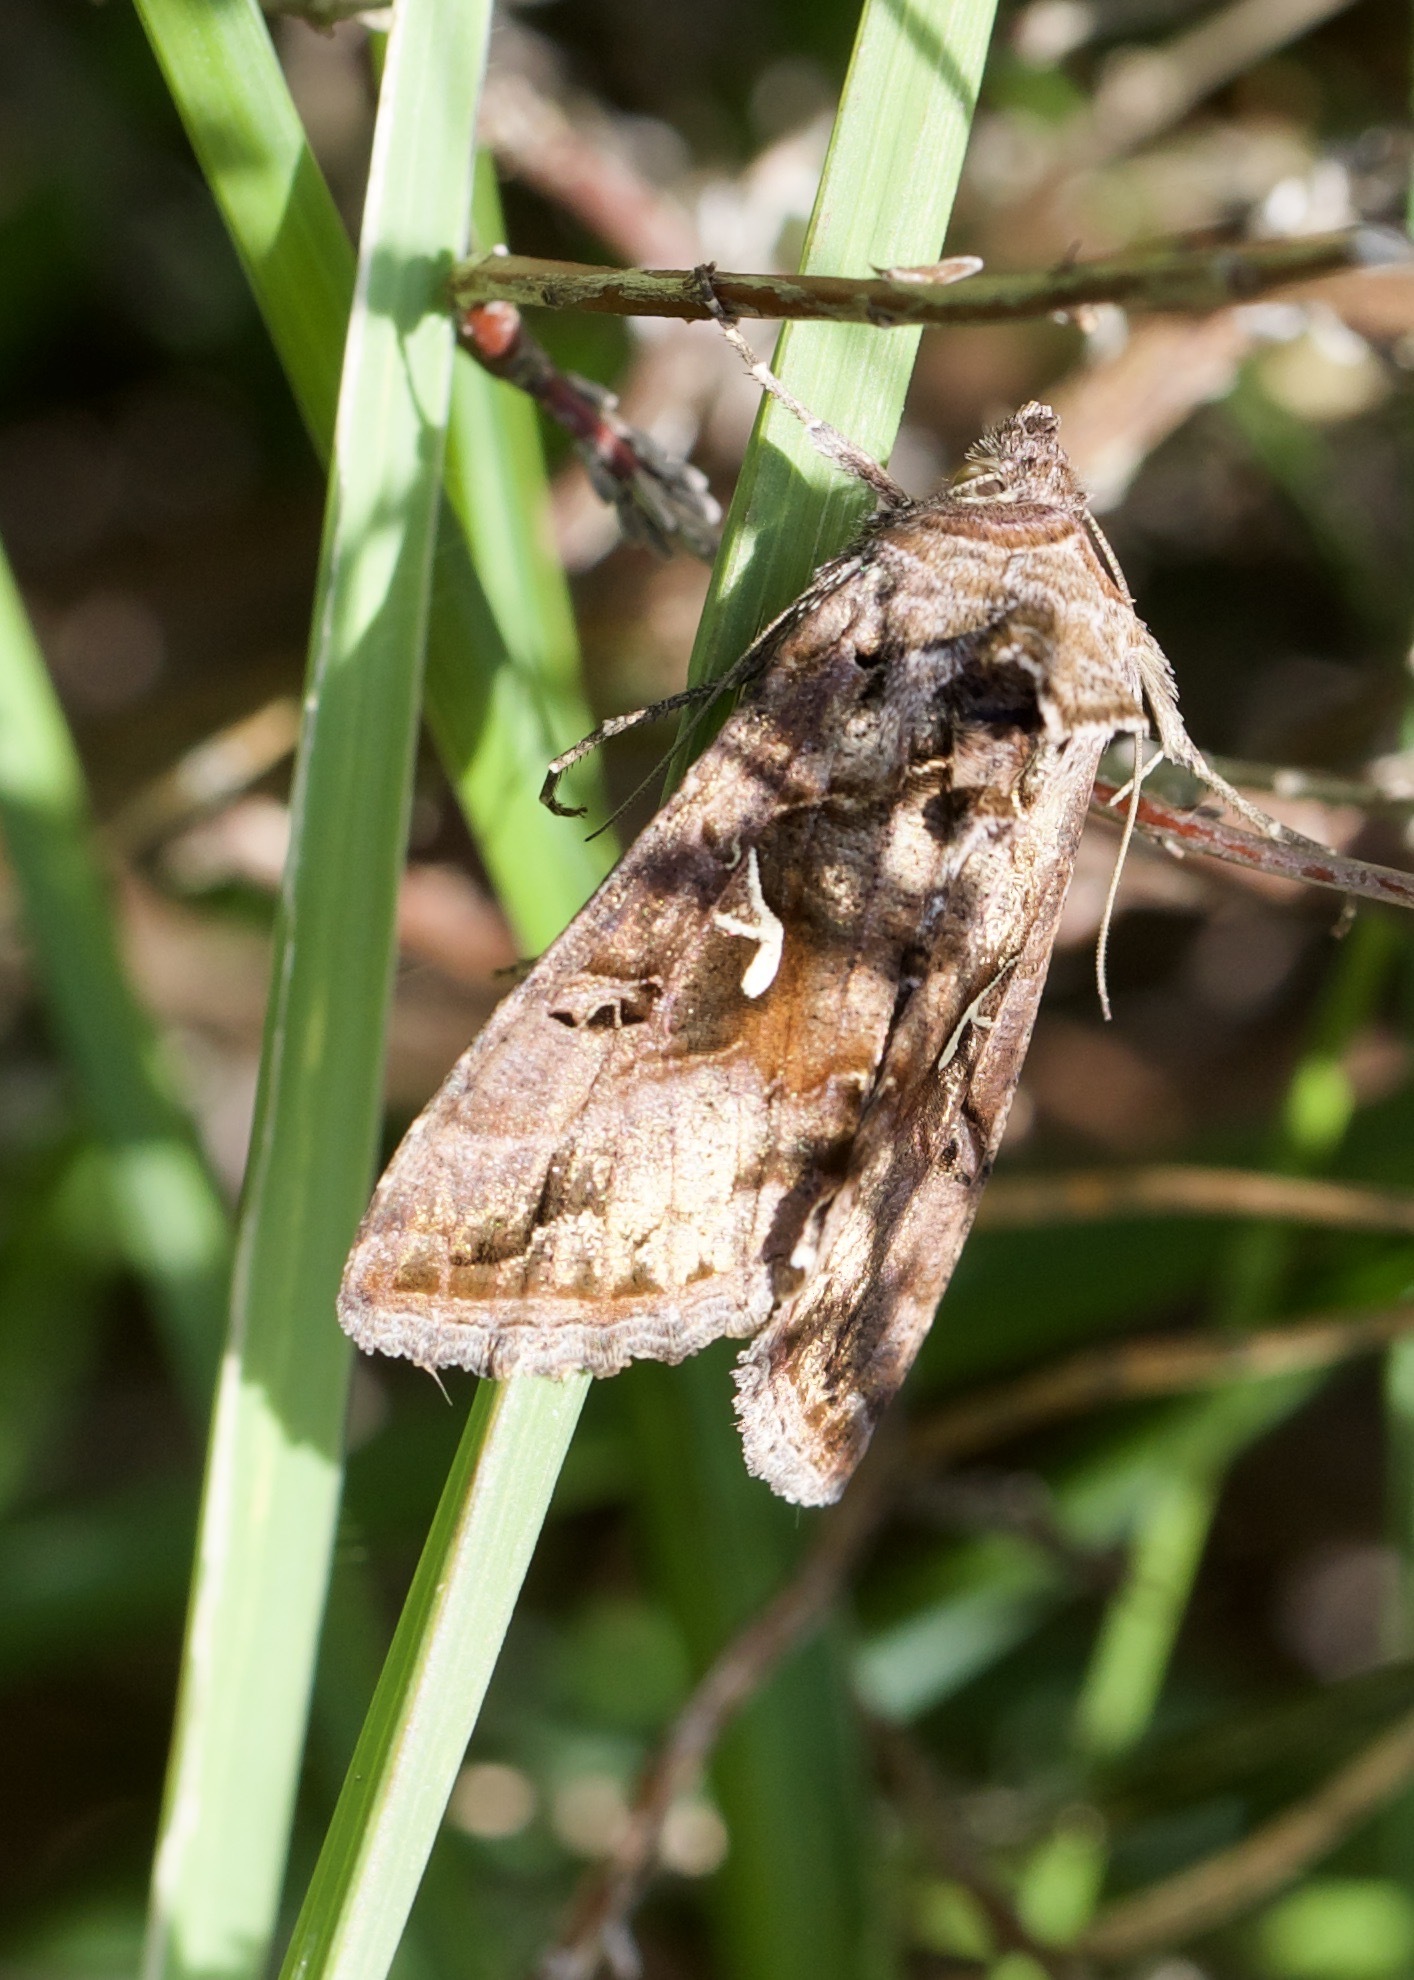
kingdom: Animalia
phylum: Arthropoda
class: Insecta
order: Lepidoptera
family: Noctuidae
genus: Autographa
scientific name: Autographa gamma
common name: Silver y
